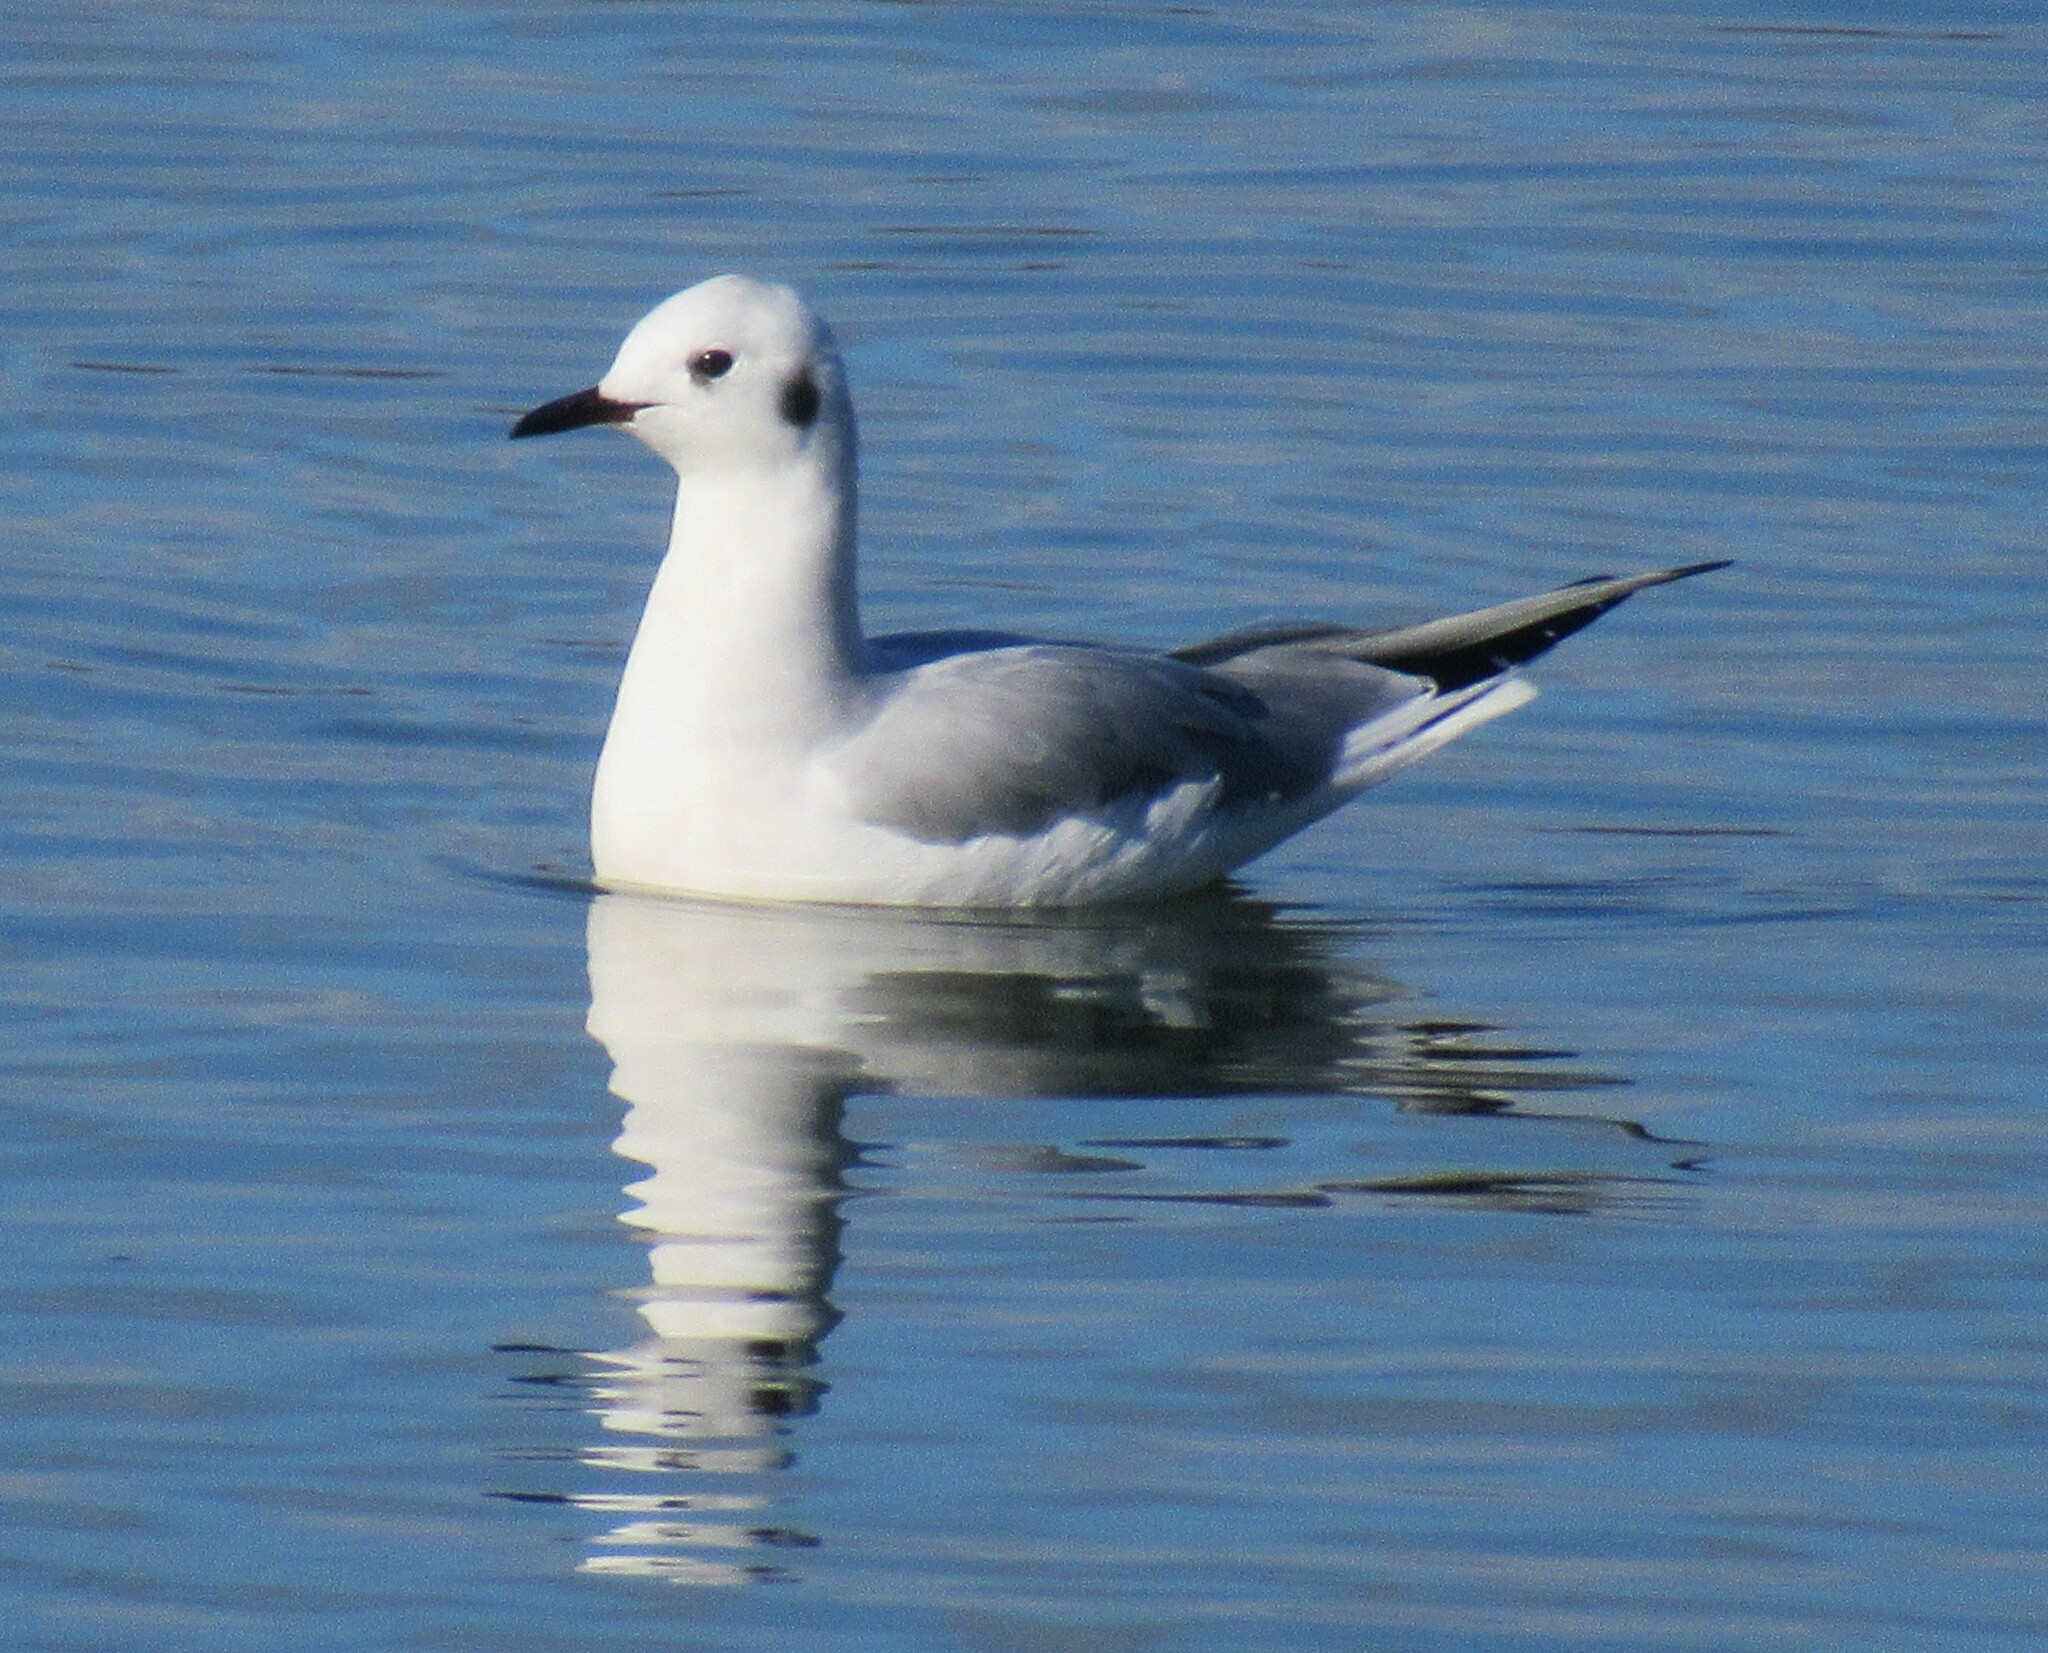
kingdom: Animalia
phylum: Chordata
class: Aves
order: Charadriiformes
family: Laridae
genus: Chroicocephalus
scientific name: Chroicocephalus philadelphia
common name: Bonaparte's gull
